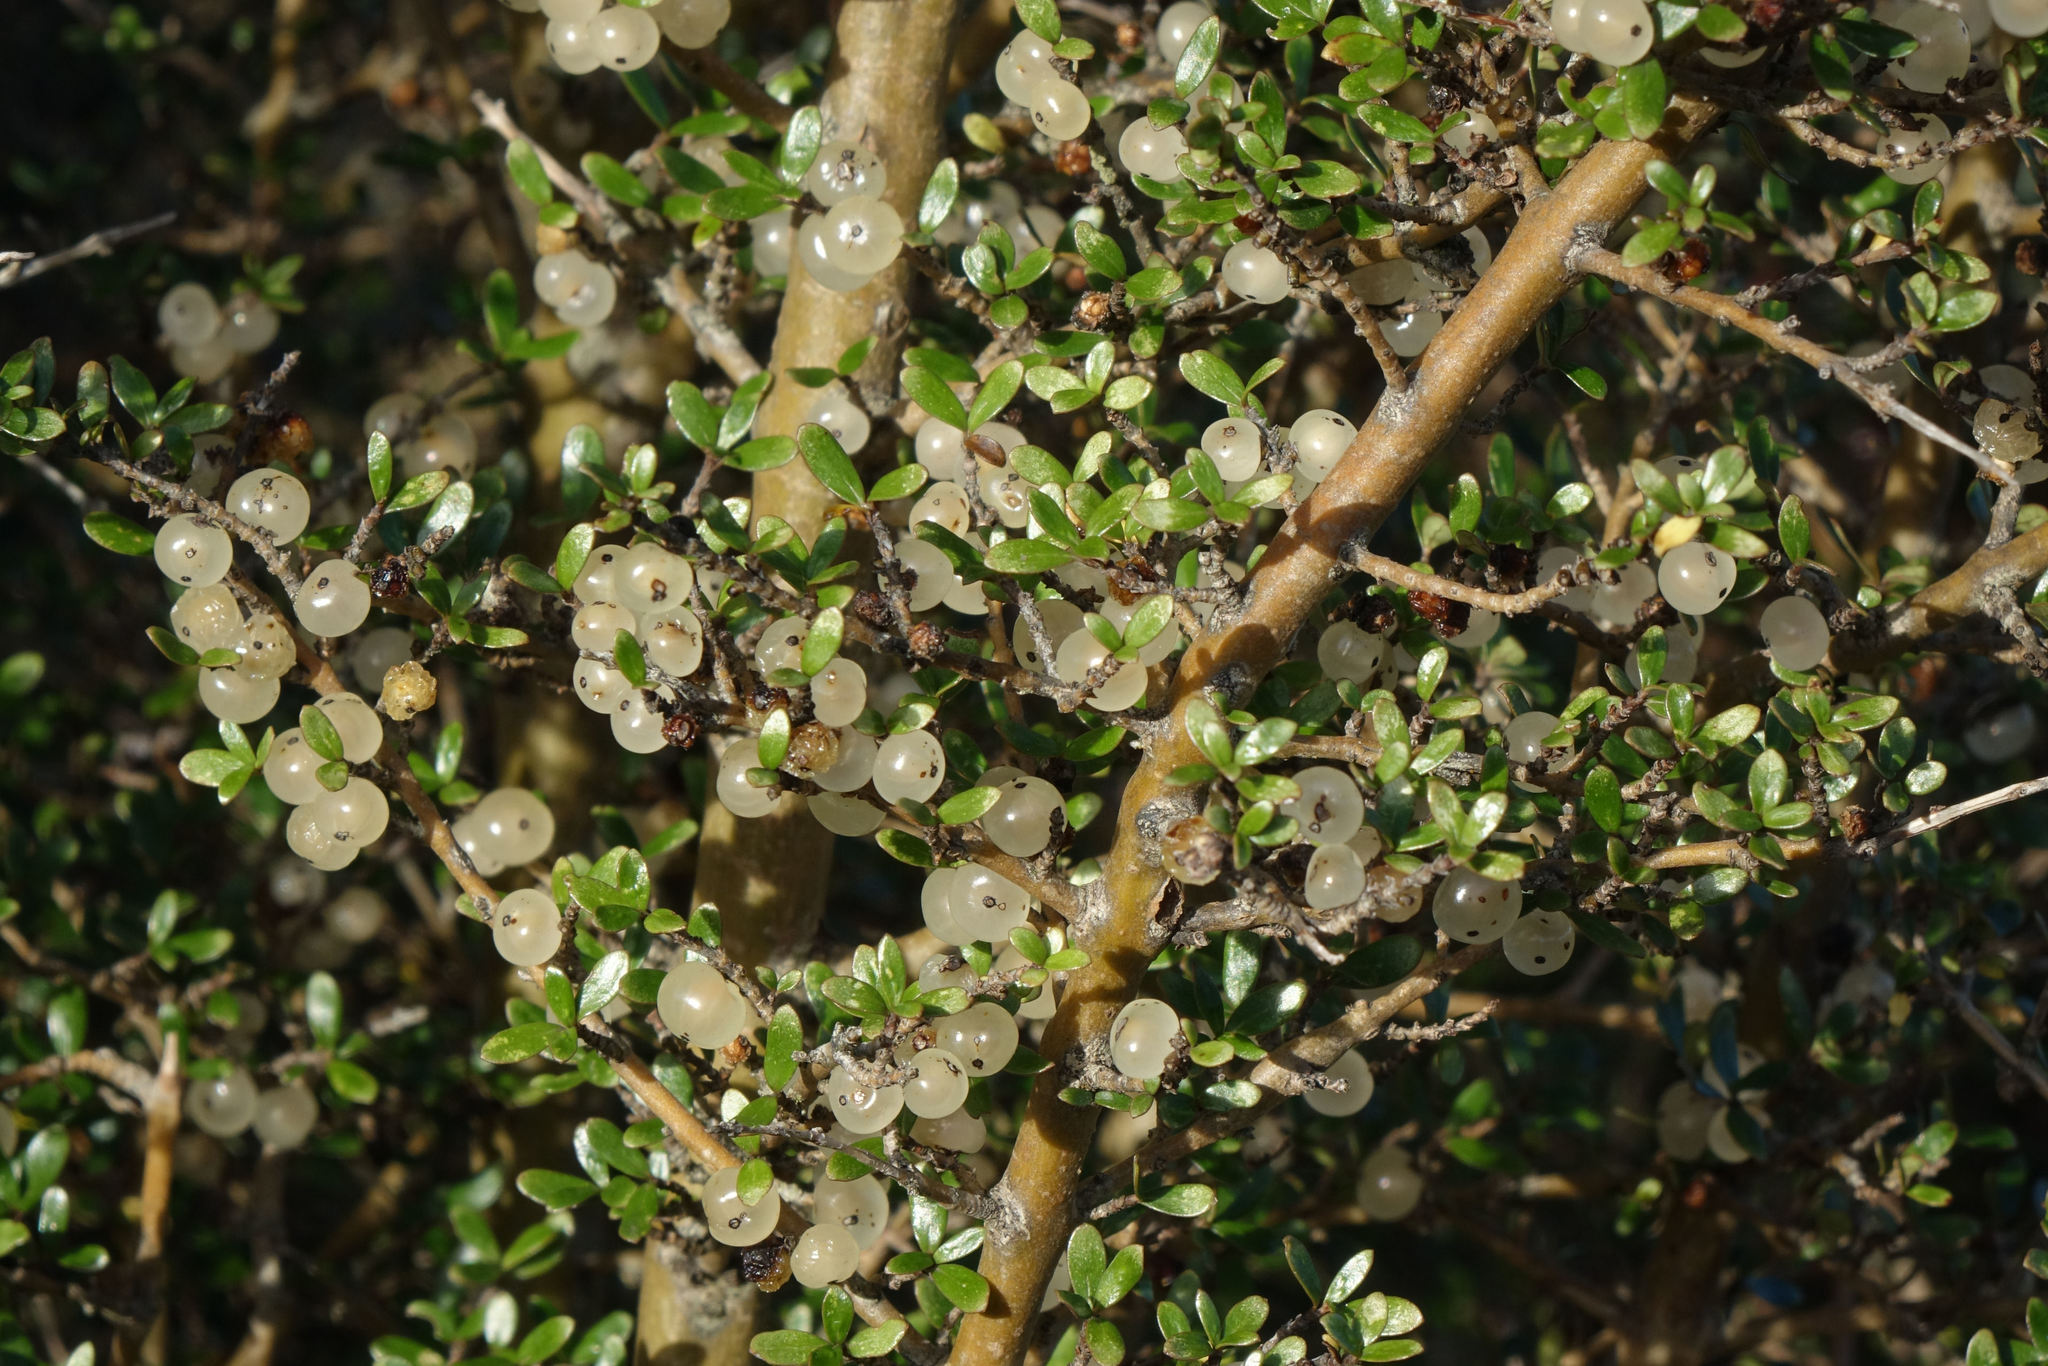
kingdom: Plantae
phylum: Tracheophyta
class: Magnoliopsida
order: Gentianales
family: Rubiaceae
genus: Coprosma
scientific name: Coprosma dumosa
